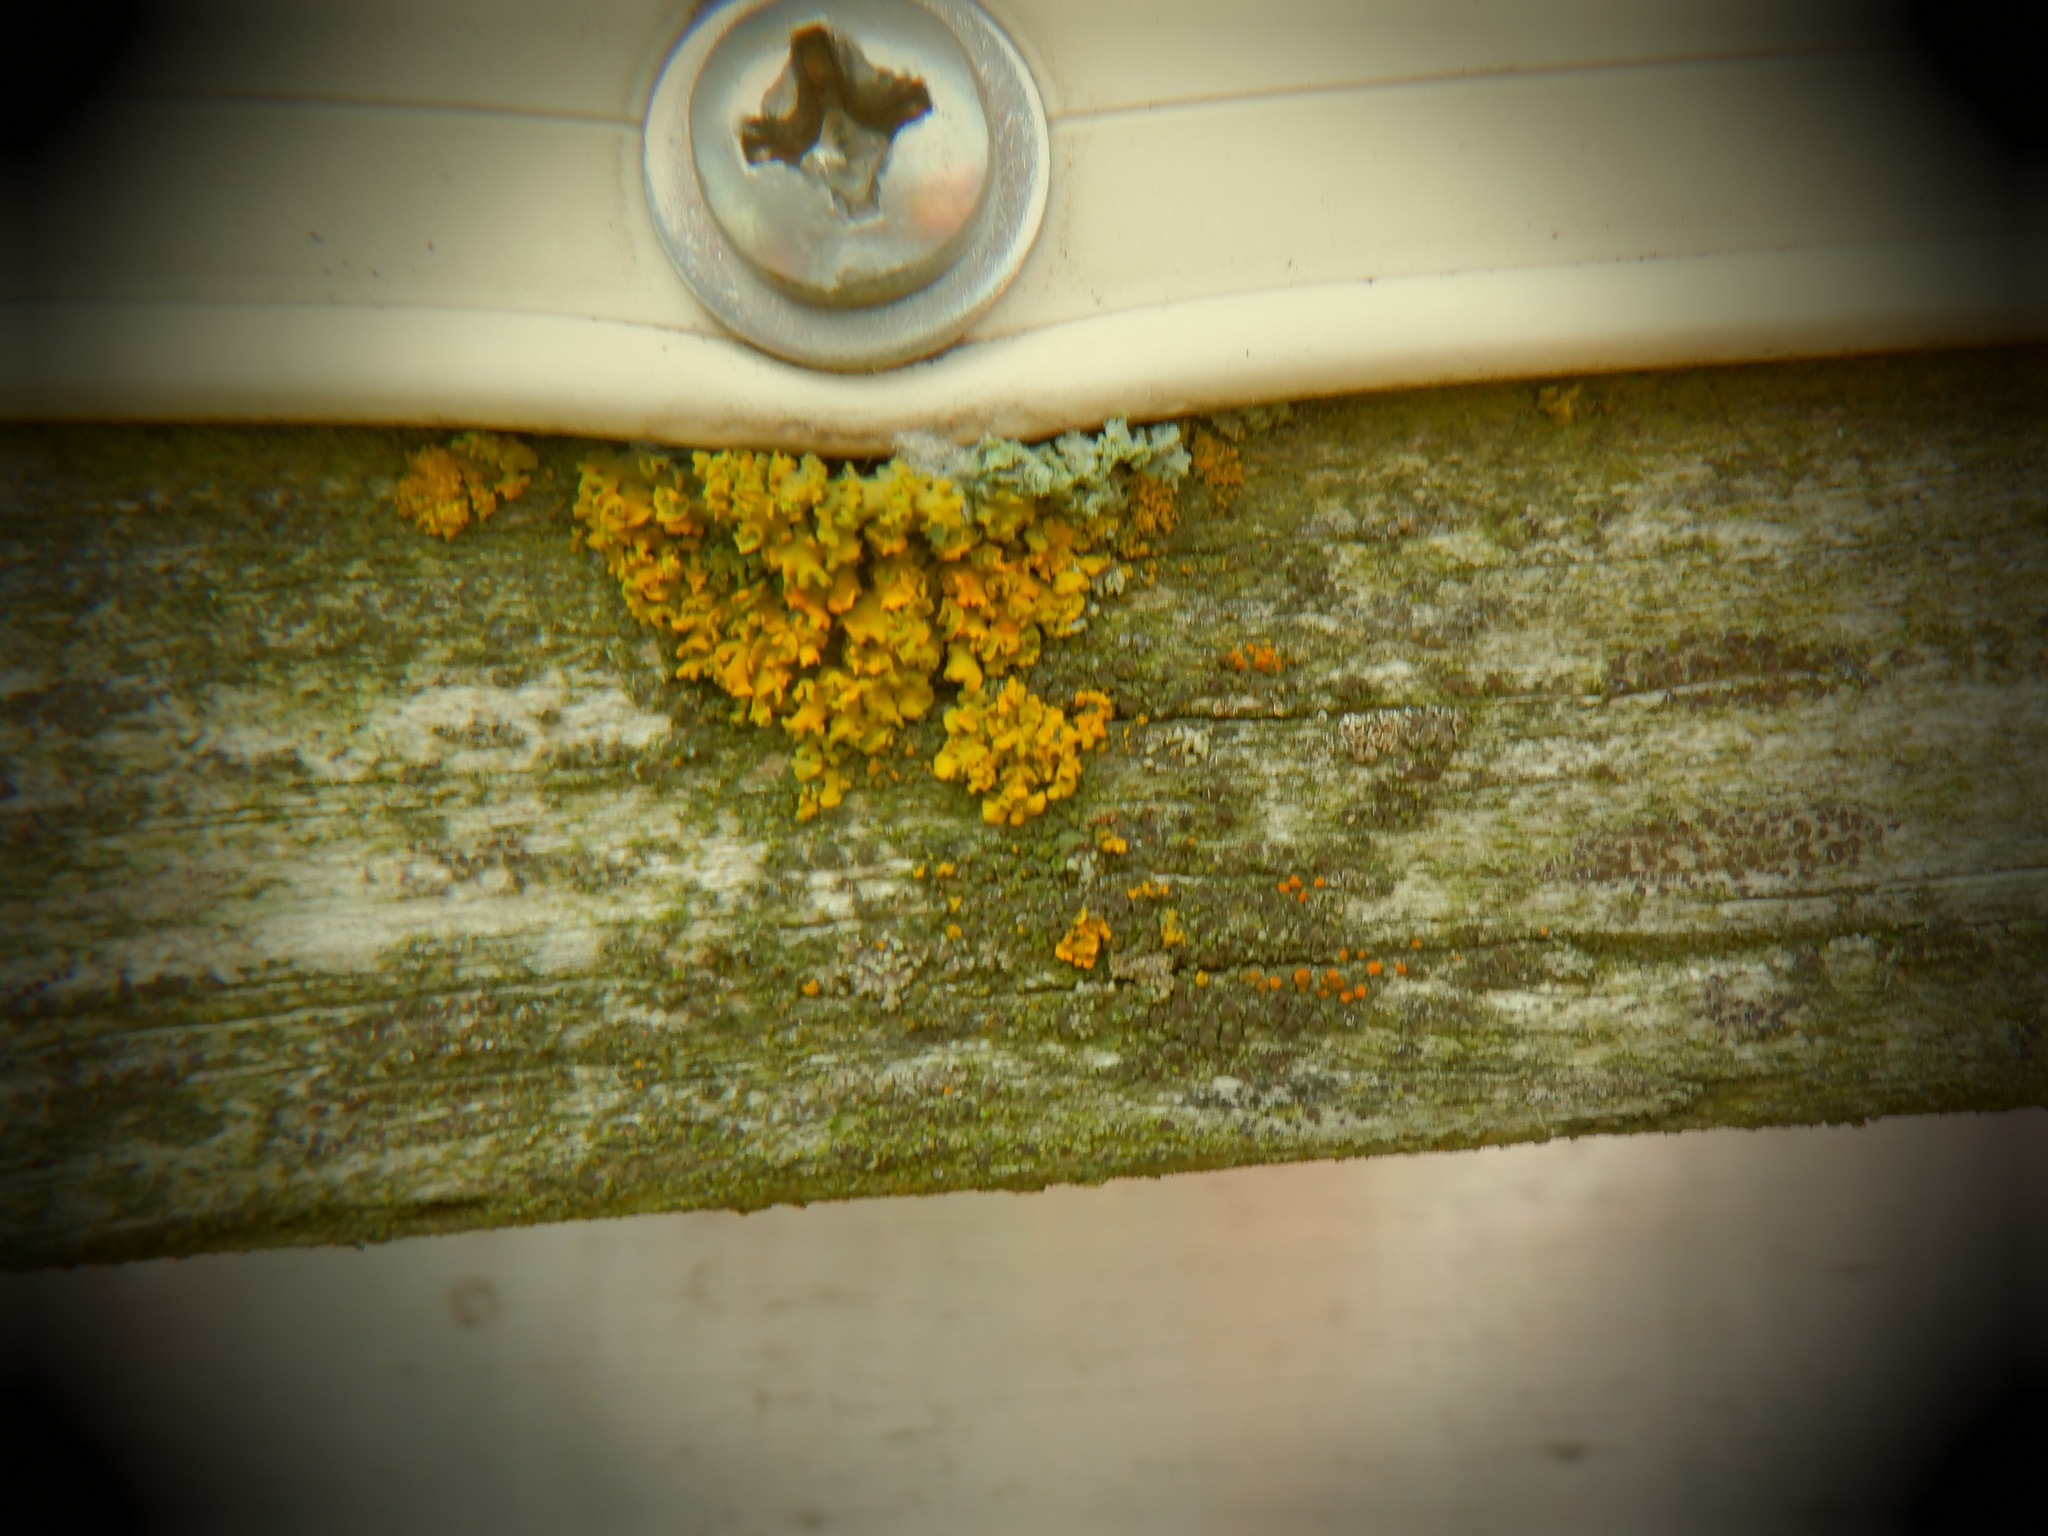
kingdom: Fungi
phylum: Ascomycota
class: Lecanoromycetes
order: Teloschistales
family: Teloschistaceae
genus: Oxneria
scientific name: Oxneria fallax
